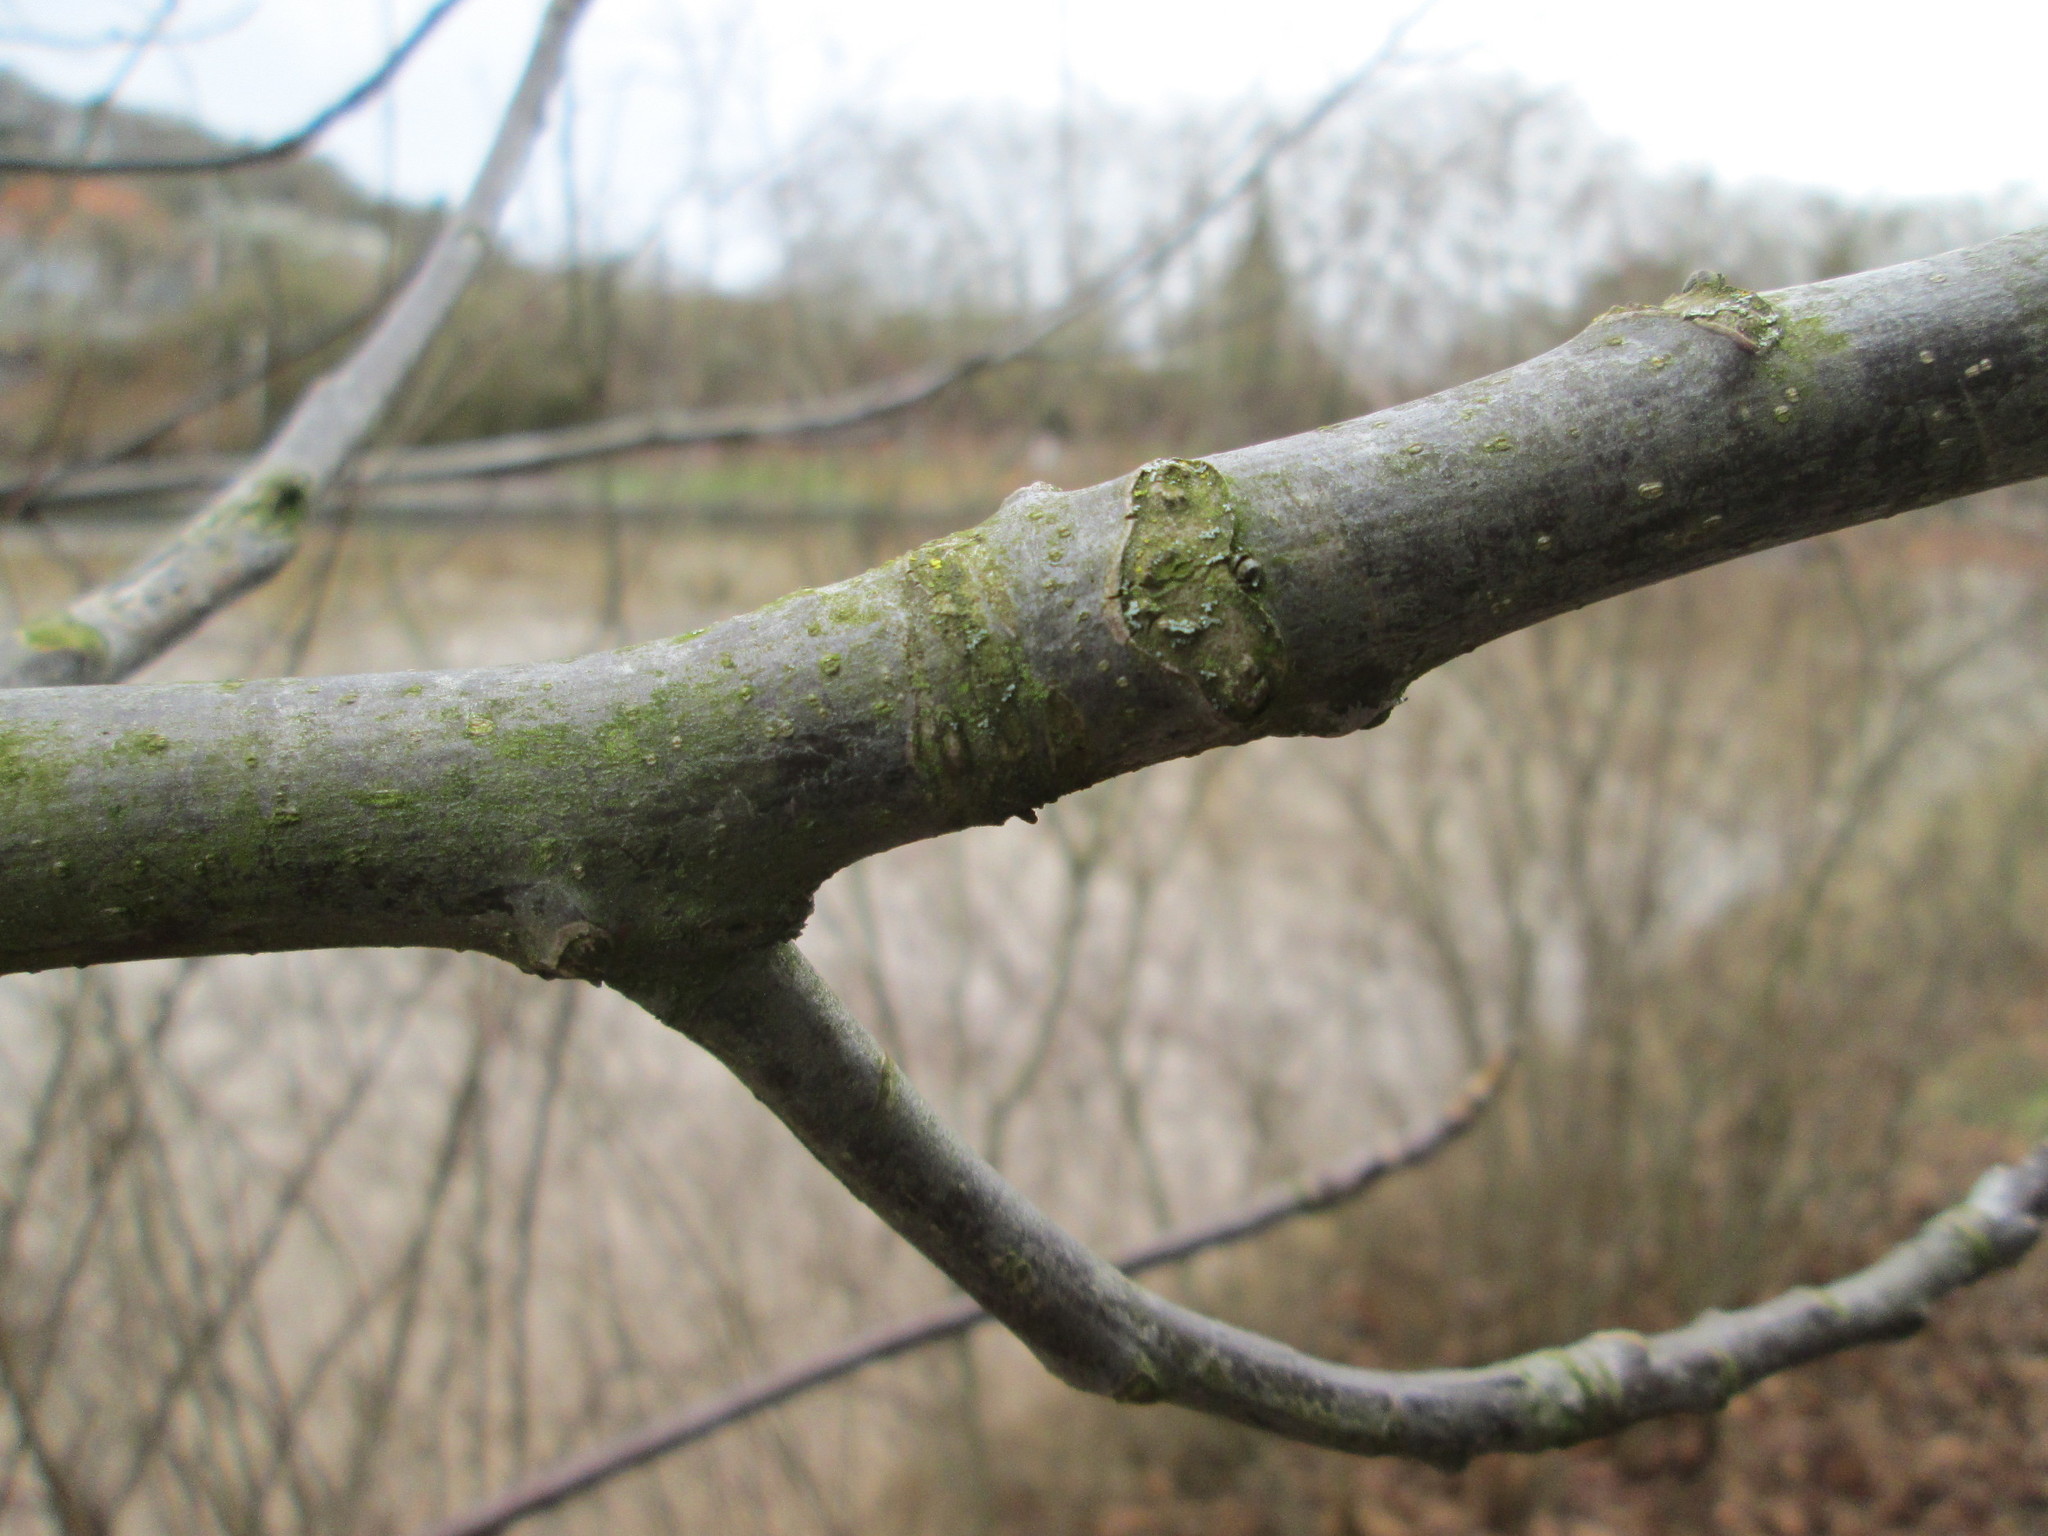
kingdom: Plantae
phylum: Tracheophyta
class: Magnoliopsida
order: Fagales
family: Juglandaceae
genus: Juglans
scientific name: Juglans regia
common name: Walnut
